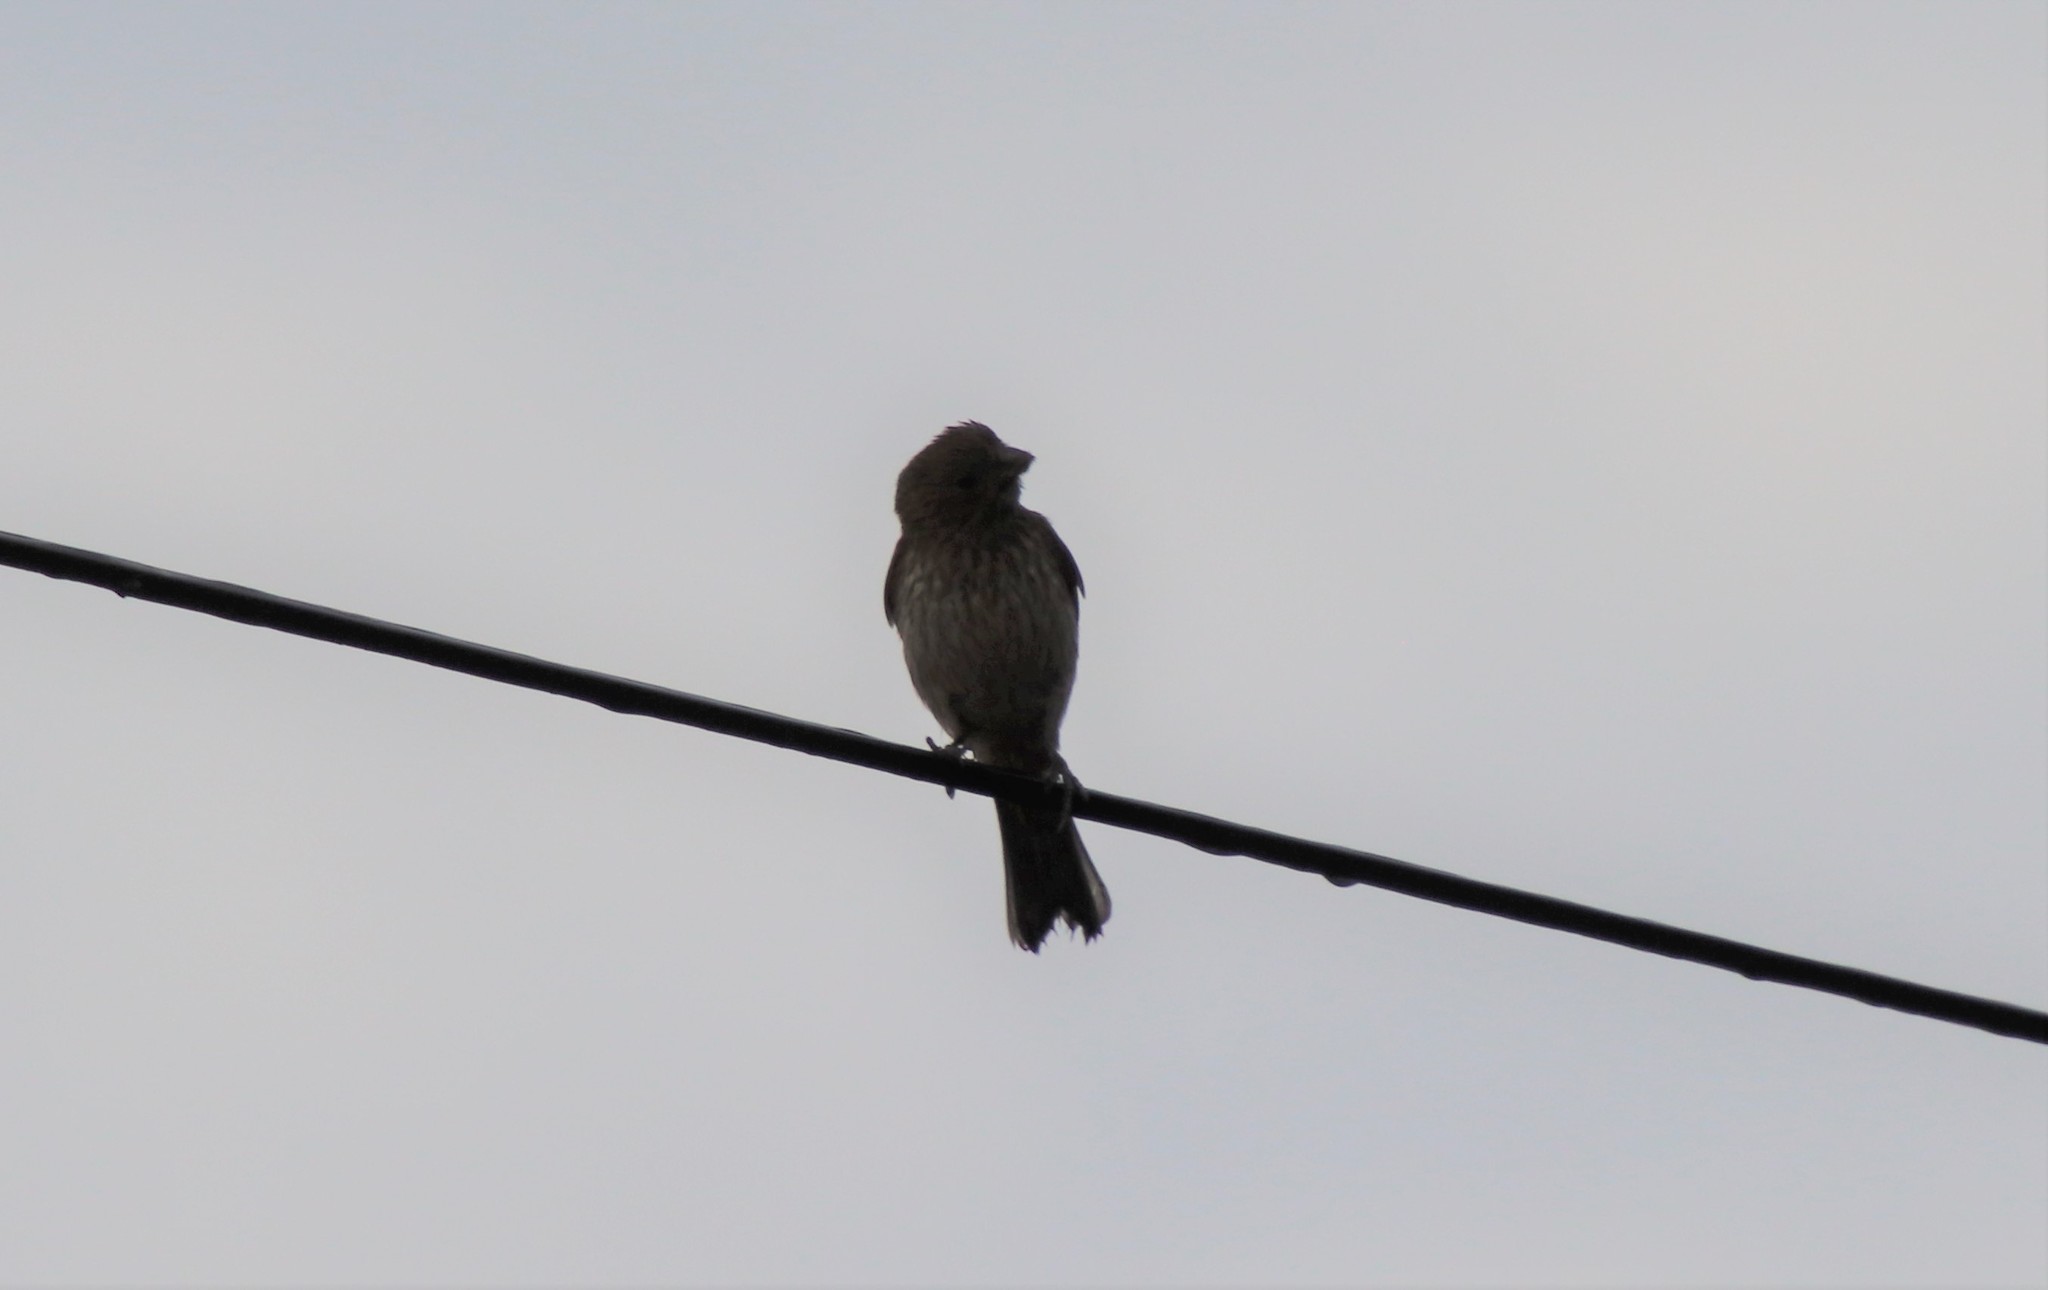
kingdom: Animalia
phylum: Chordata
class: Aves
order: Passeriformes
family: Fringillidae
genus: Haemorhous
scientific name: Haemorhous mexicanus
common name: House finch
